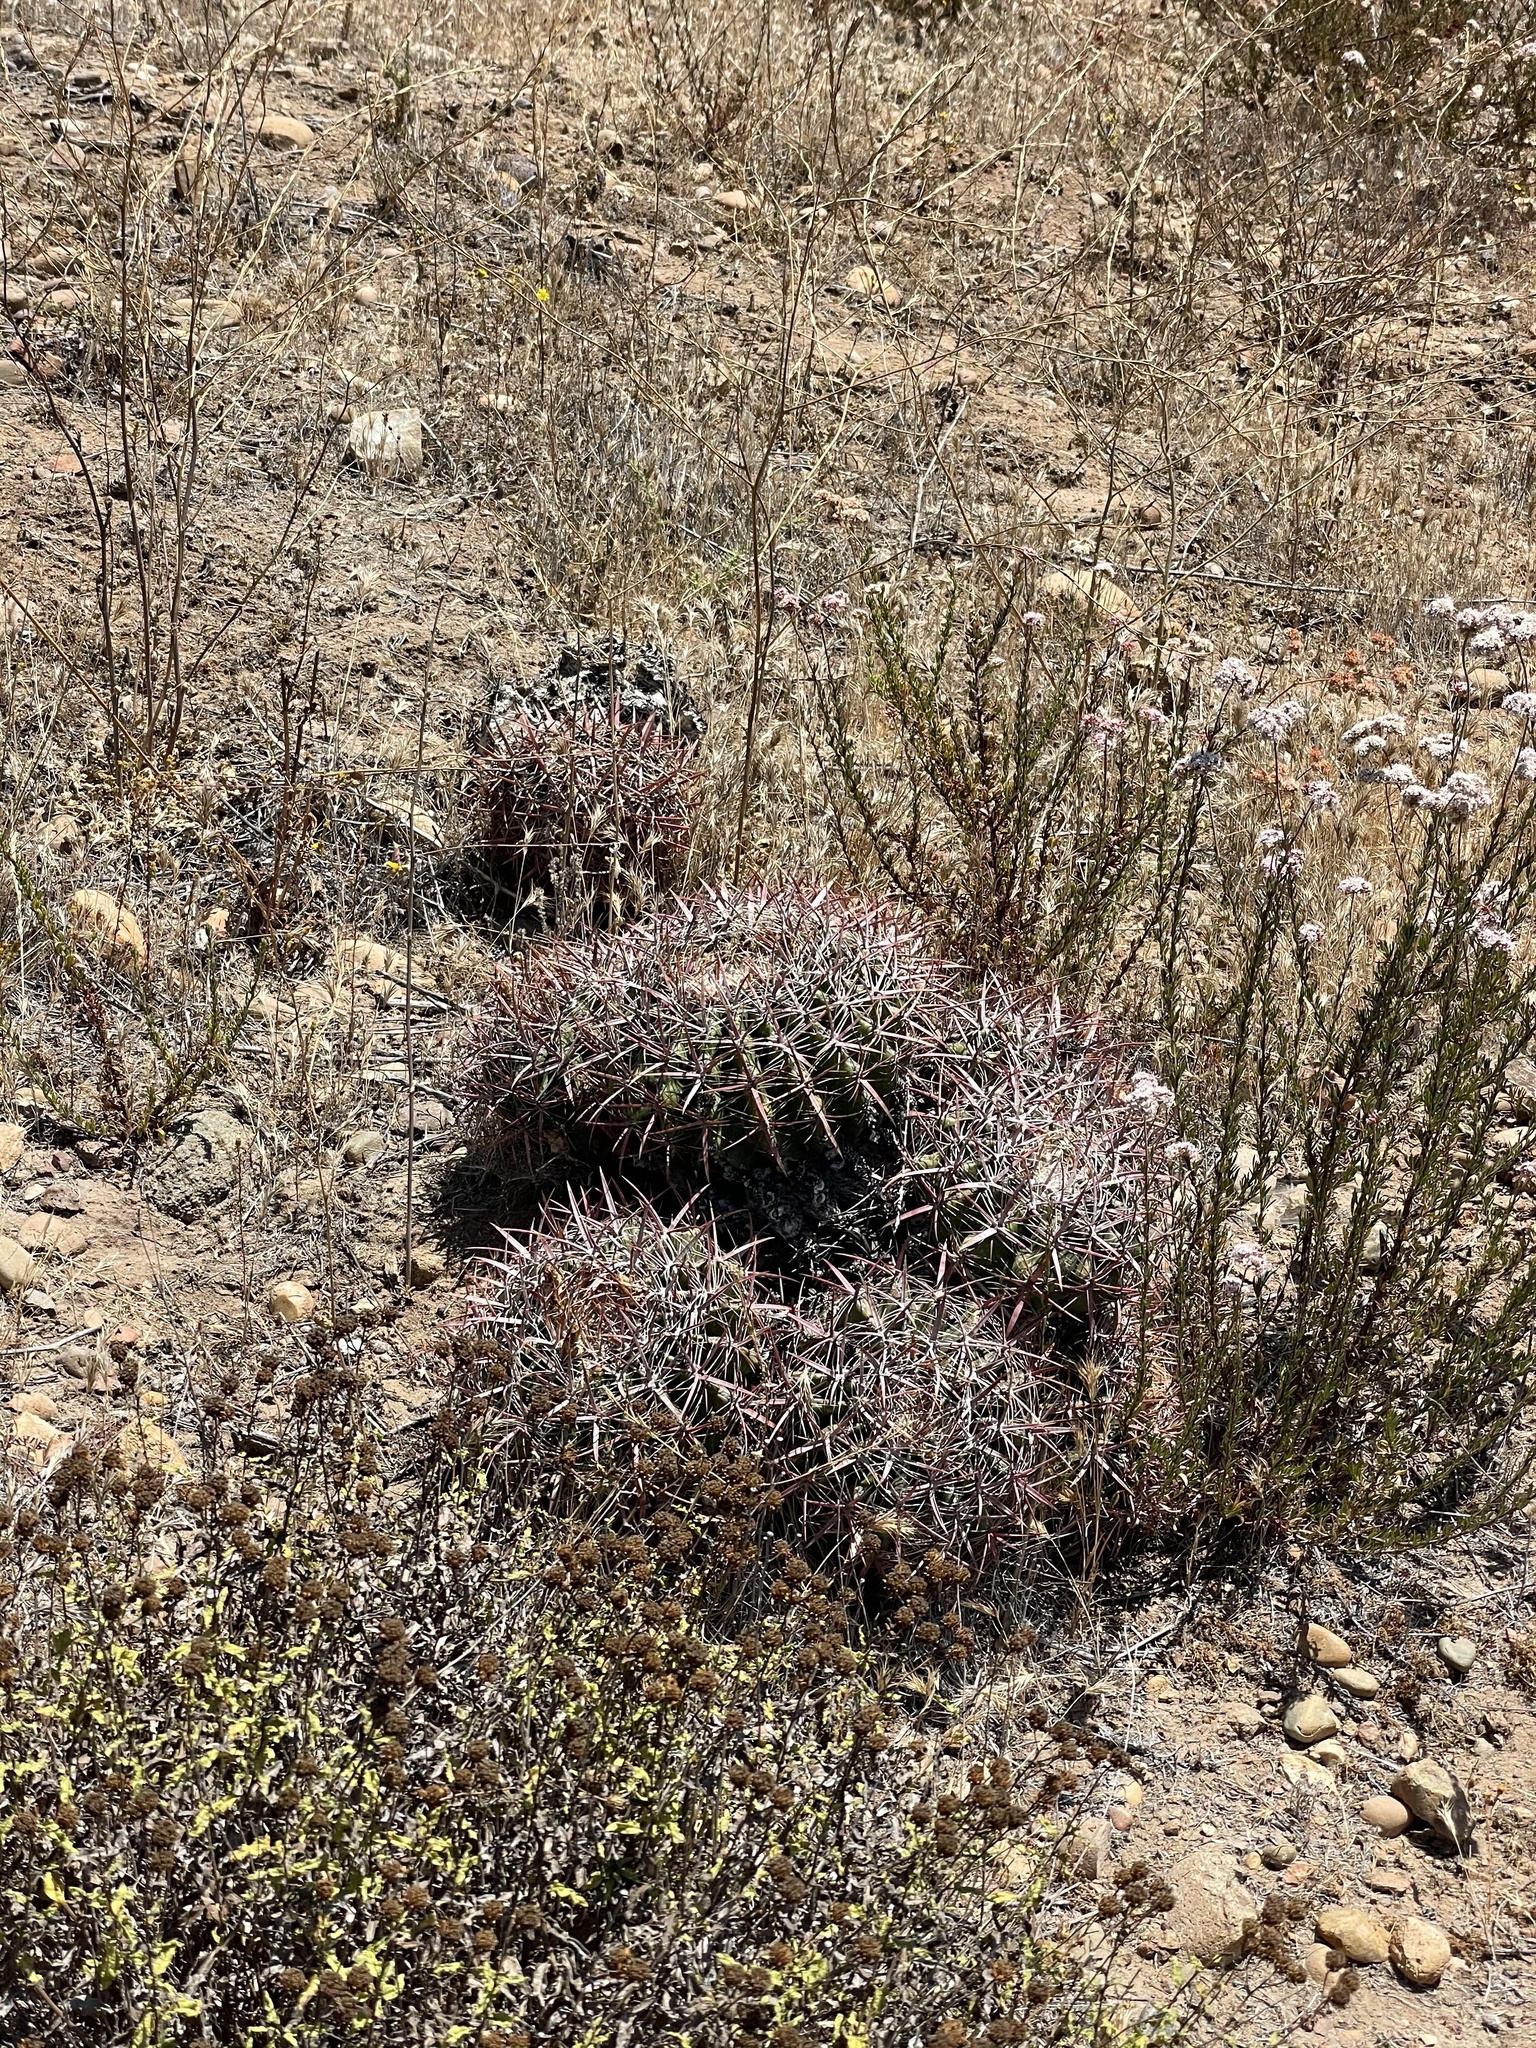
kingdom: Plantae
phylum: Tracheophyta
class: Magnoliopsida
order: Caryophyllales
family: Cactaceae
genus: Ferocactus
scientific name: Ferocactus viridescens
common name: San diego barrel cactus
